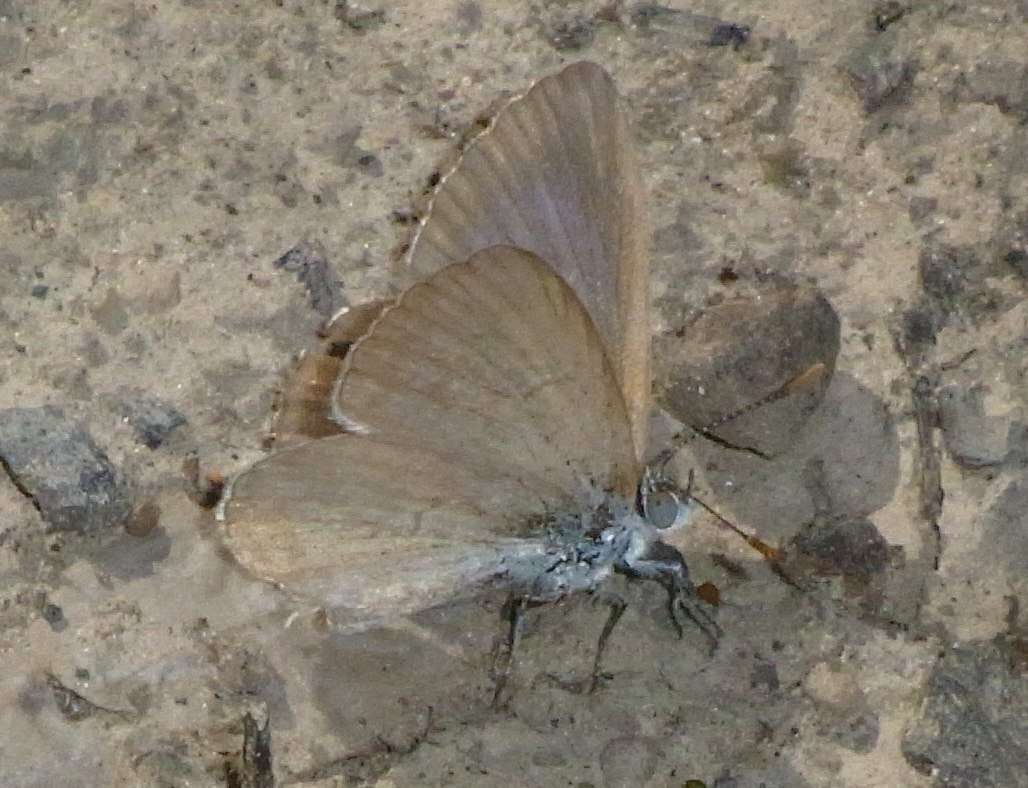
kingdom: Animalia
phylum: Arthropoda
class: Insecta
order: Lepidoptera
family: Lycaenidae
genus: Zizina
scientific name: Zizina labradus
